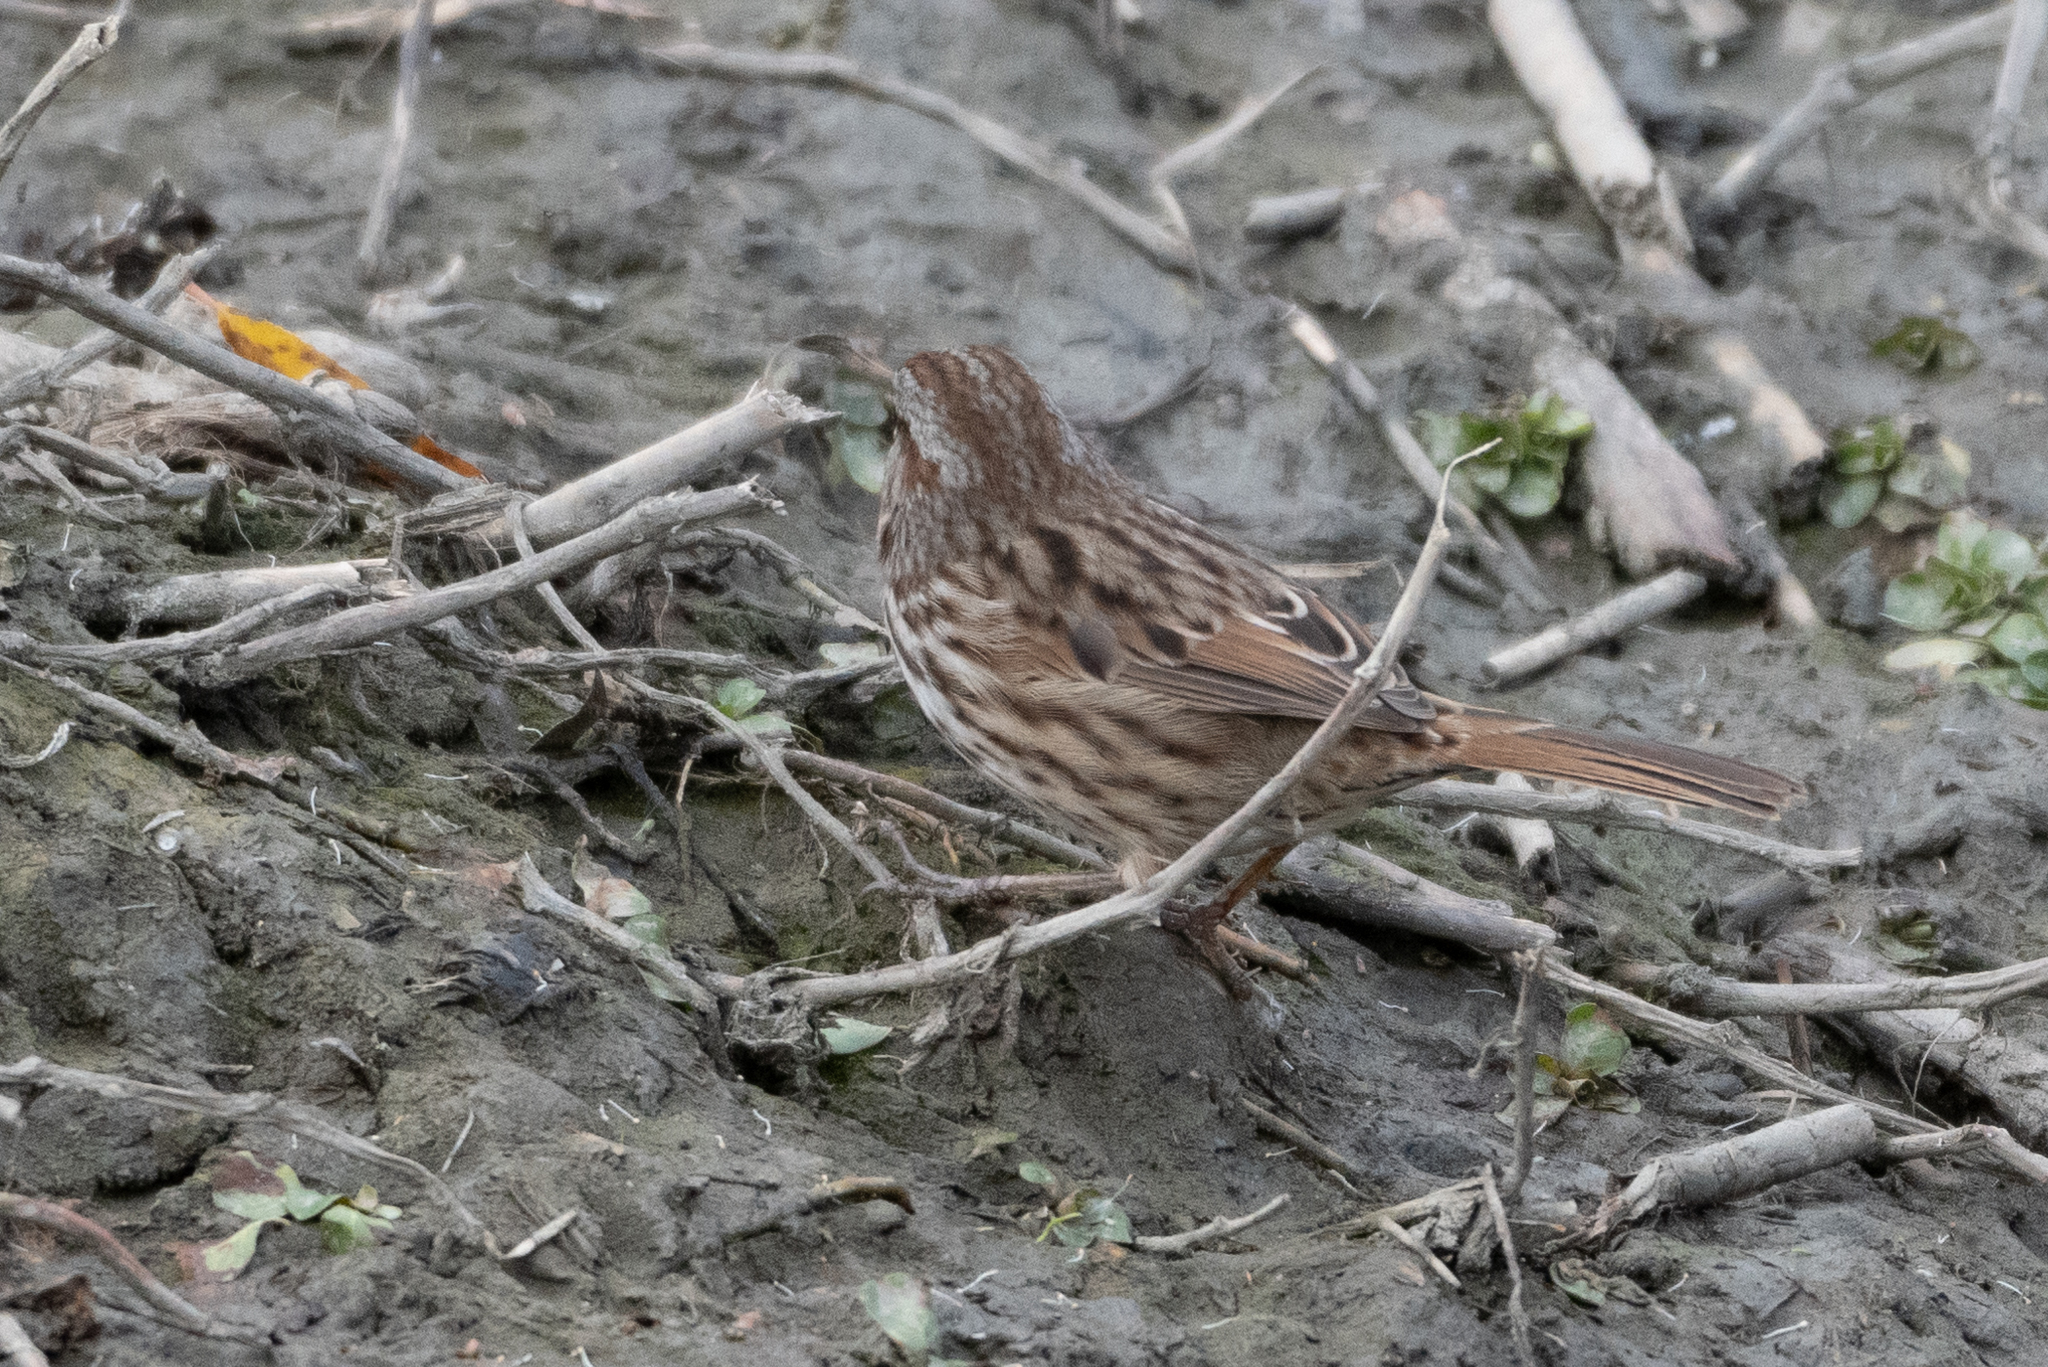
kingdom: Animalia
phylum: Chordata
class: Aves
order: Passeriformes
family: Passerellidae
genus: Melospiza
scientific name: Melospiza melodia
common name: Song sparrow
